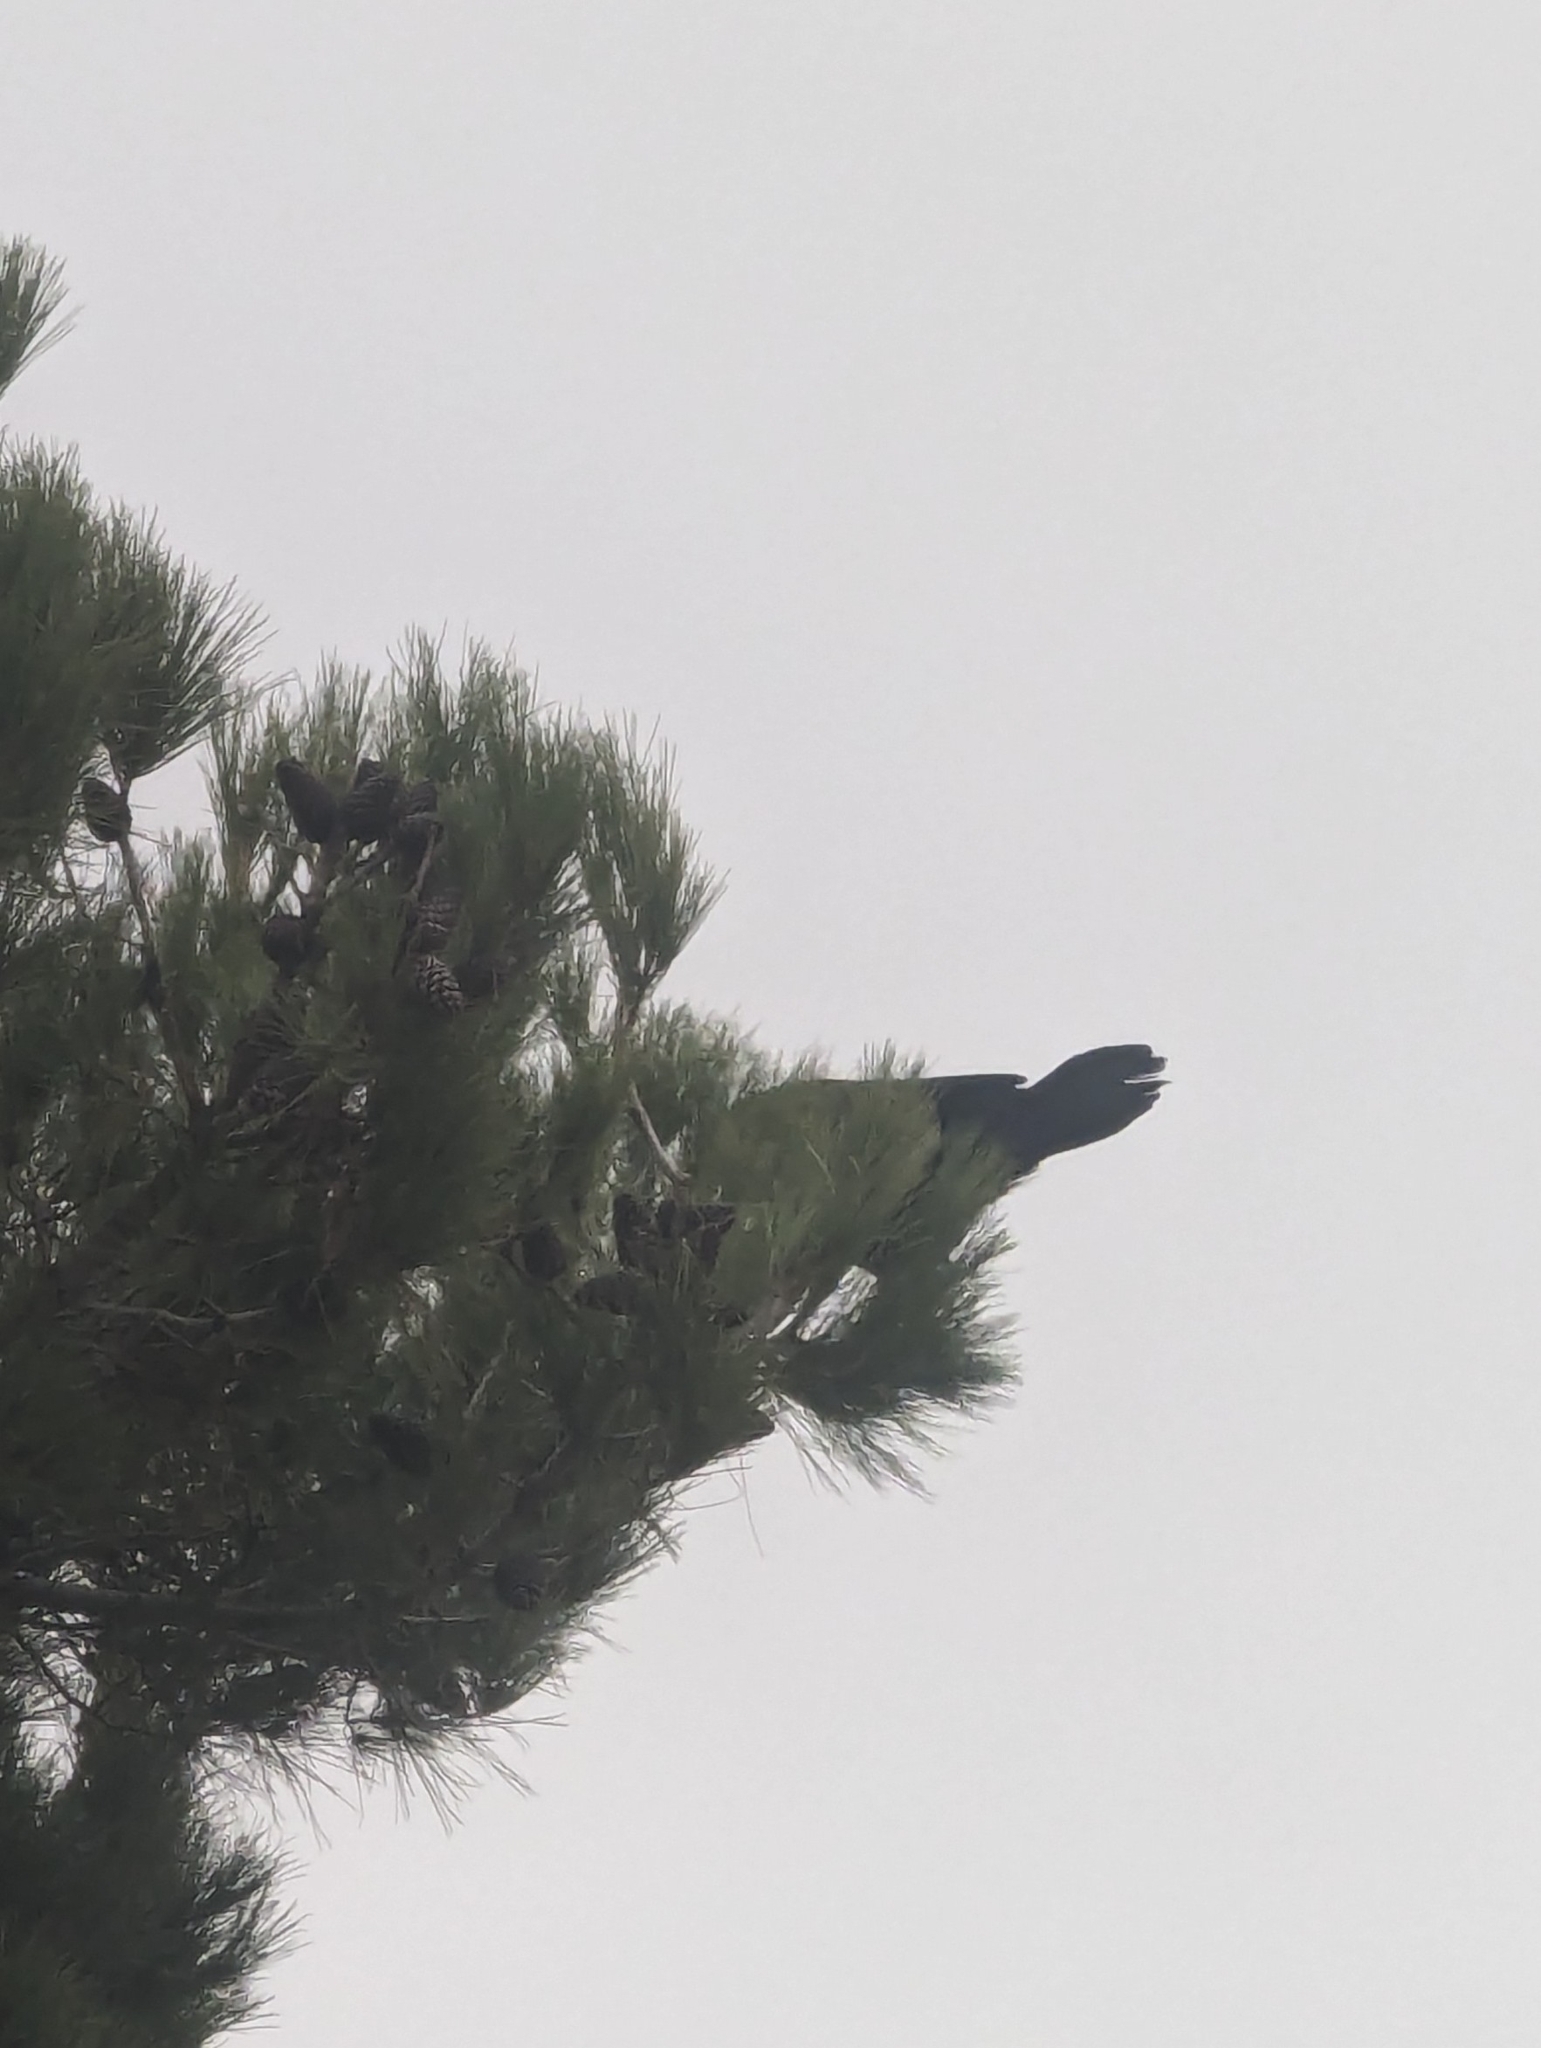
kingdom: Animalia
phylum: Chordata
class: Aves
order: Passeriformes
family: Corvidae
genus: Corvus
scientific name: Corvus corax
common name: Common raven
